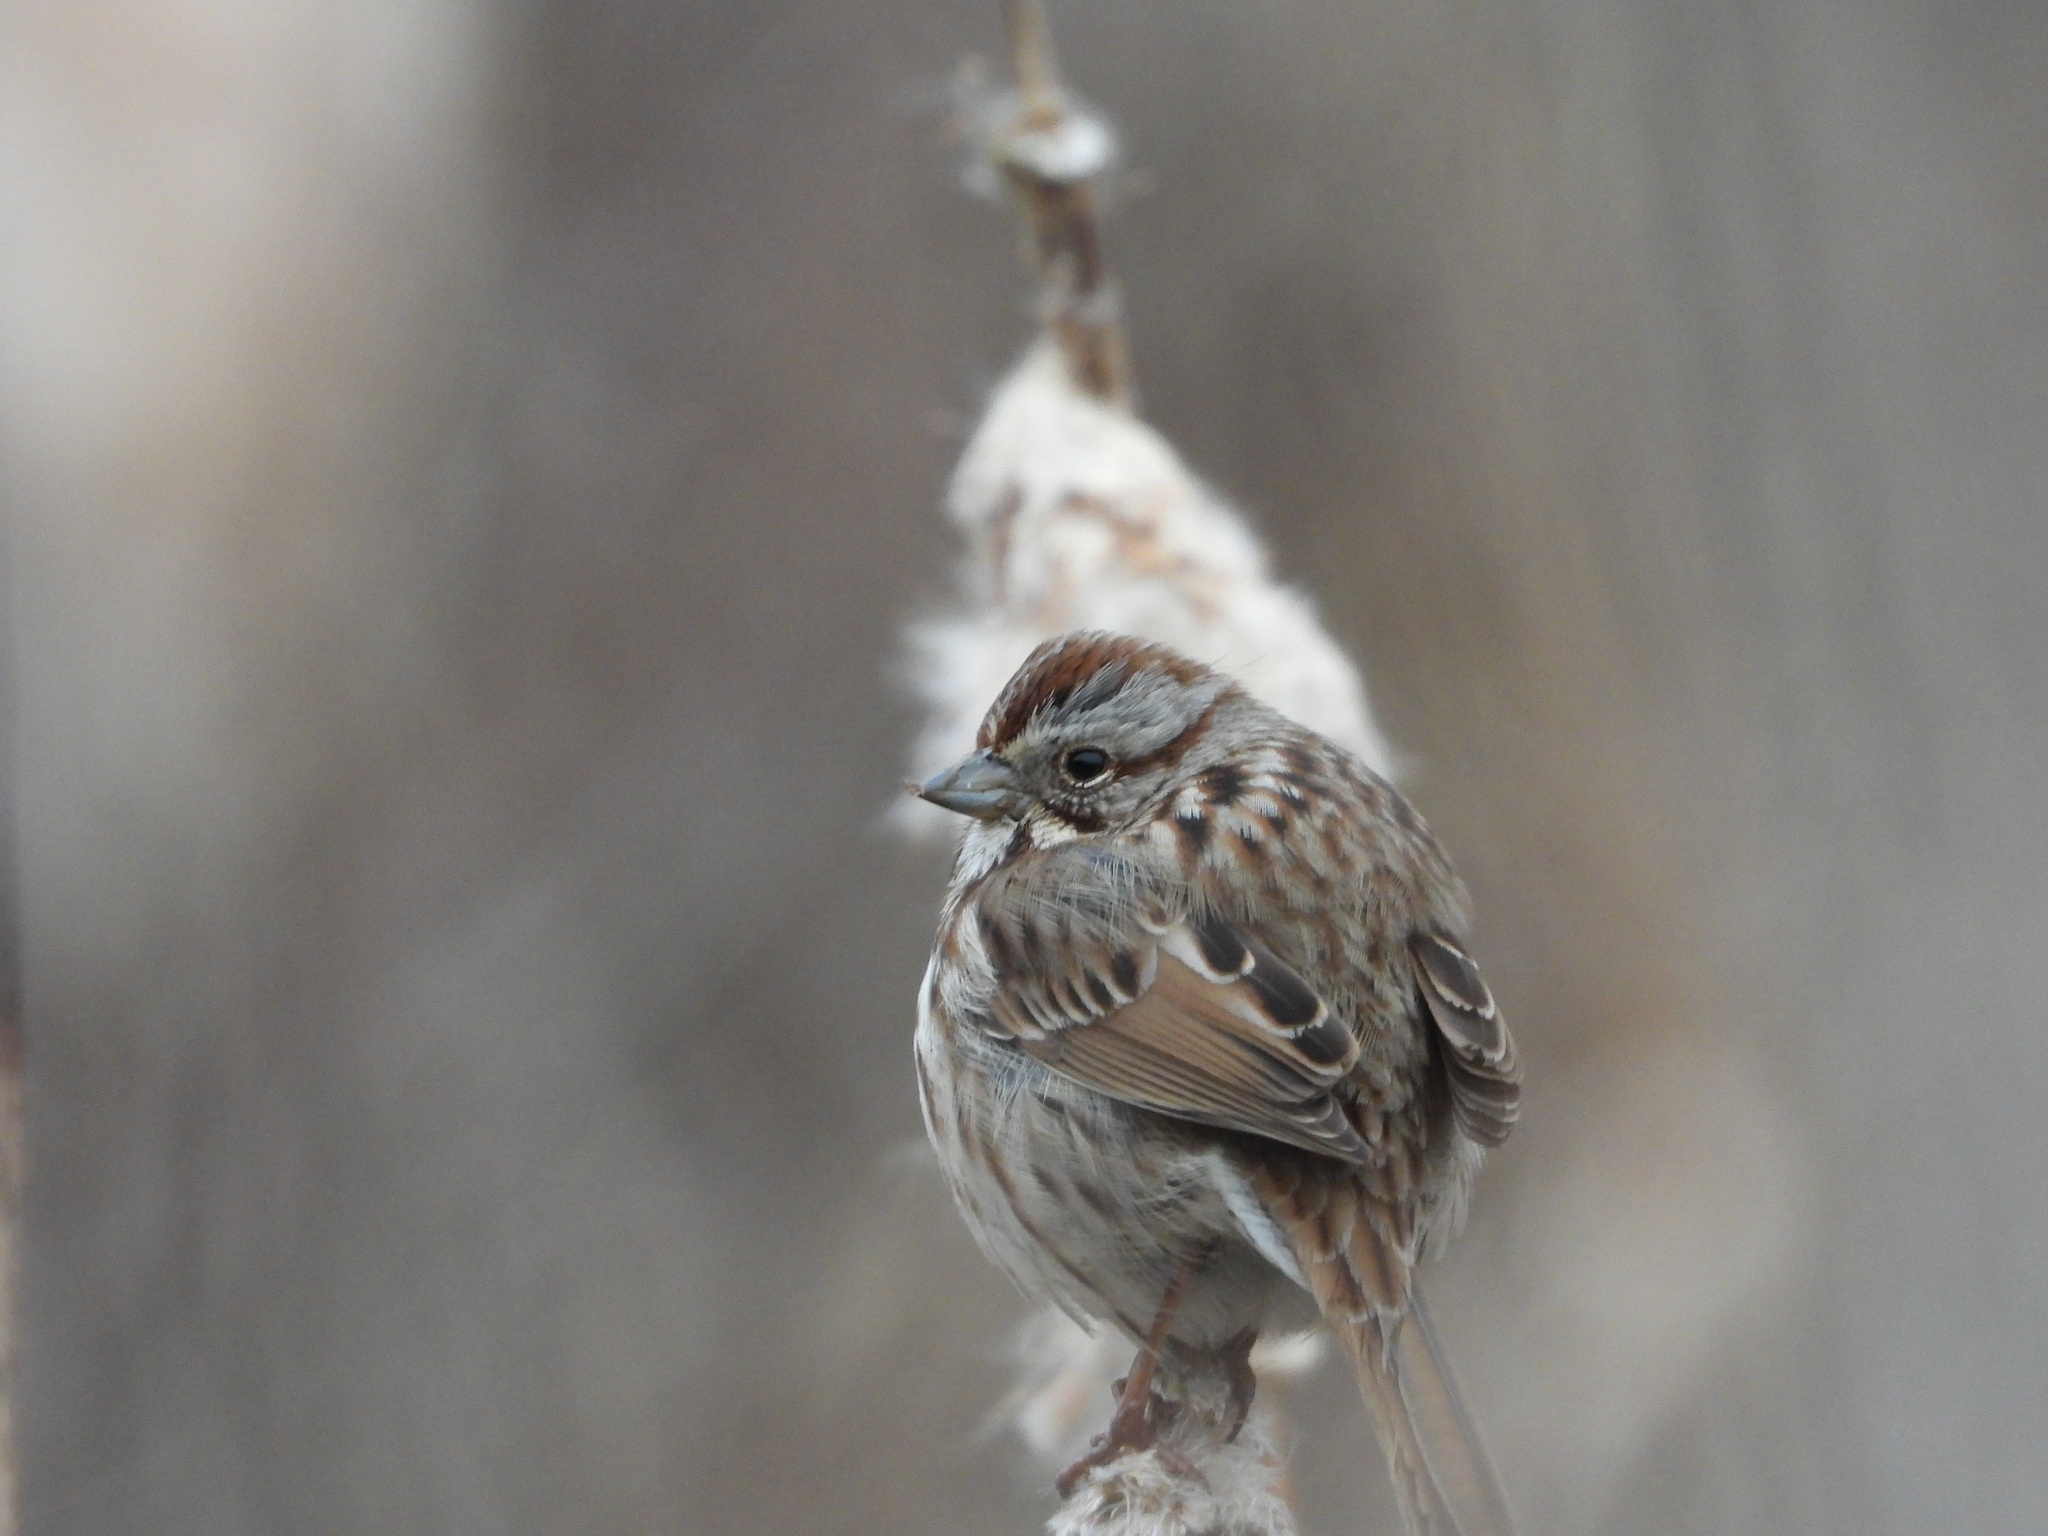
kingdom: Animalia
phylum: Chordata
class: Aves
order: Passeriformes
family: Passerellidae
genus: Melospiza
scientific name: Melospiza melodia
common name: Song sparrow
